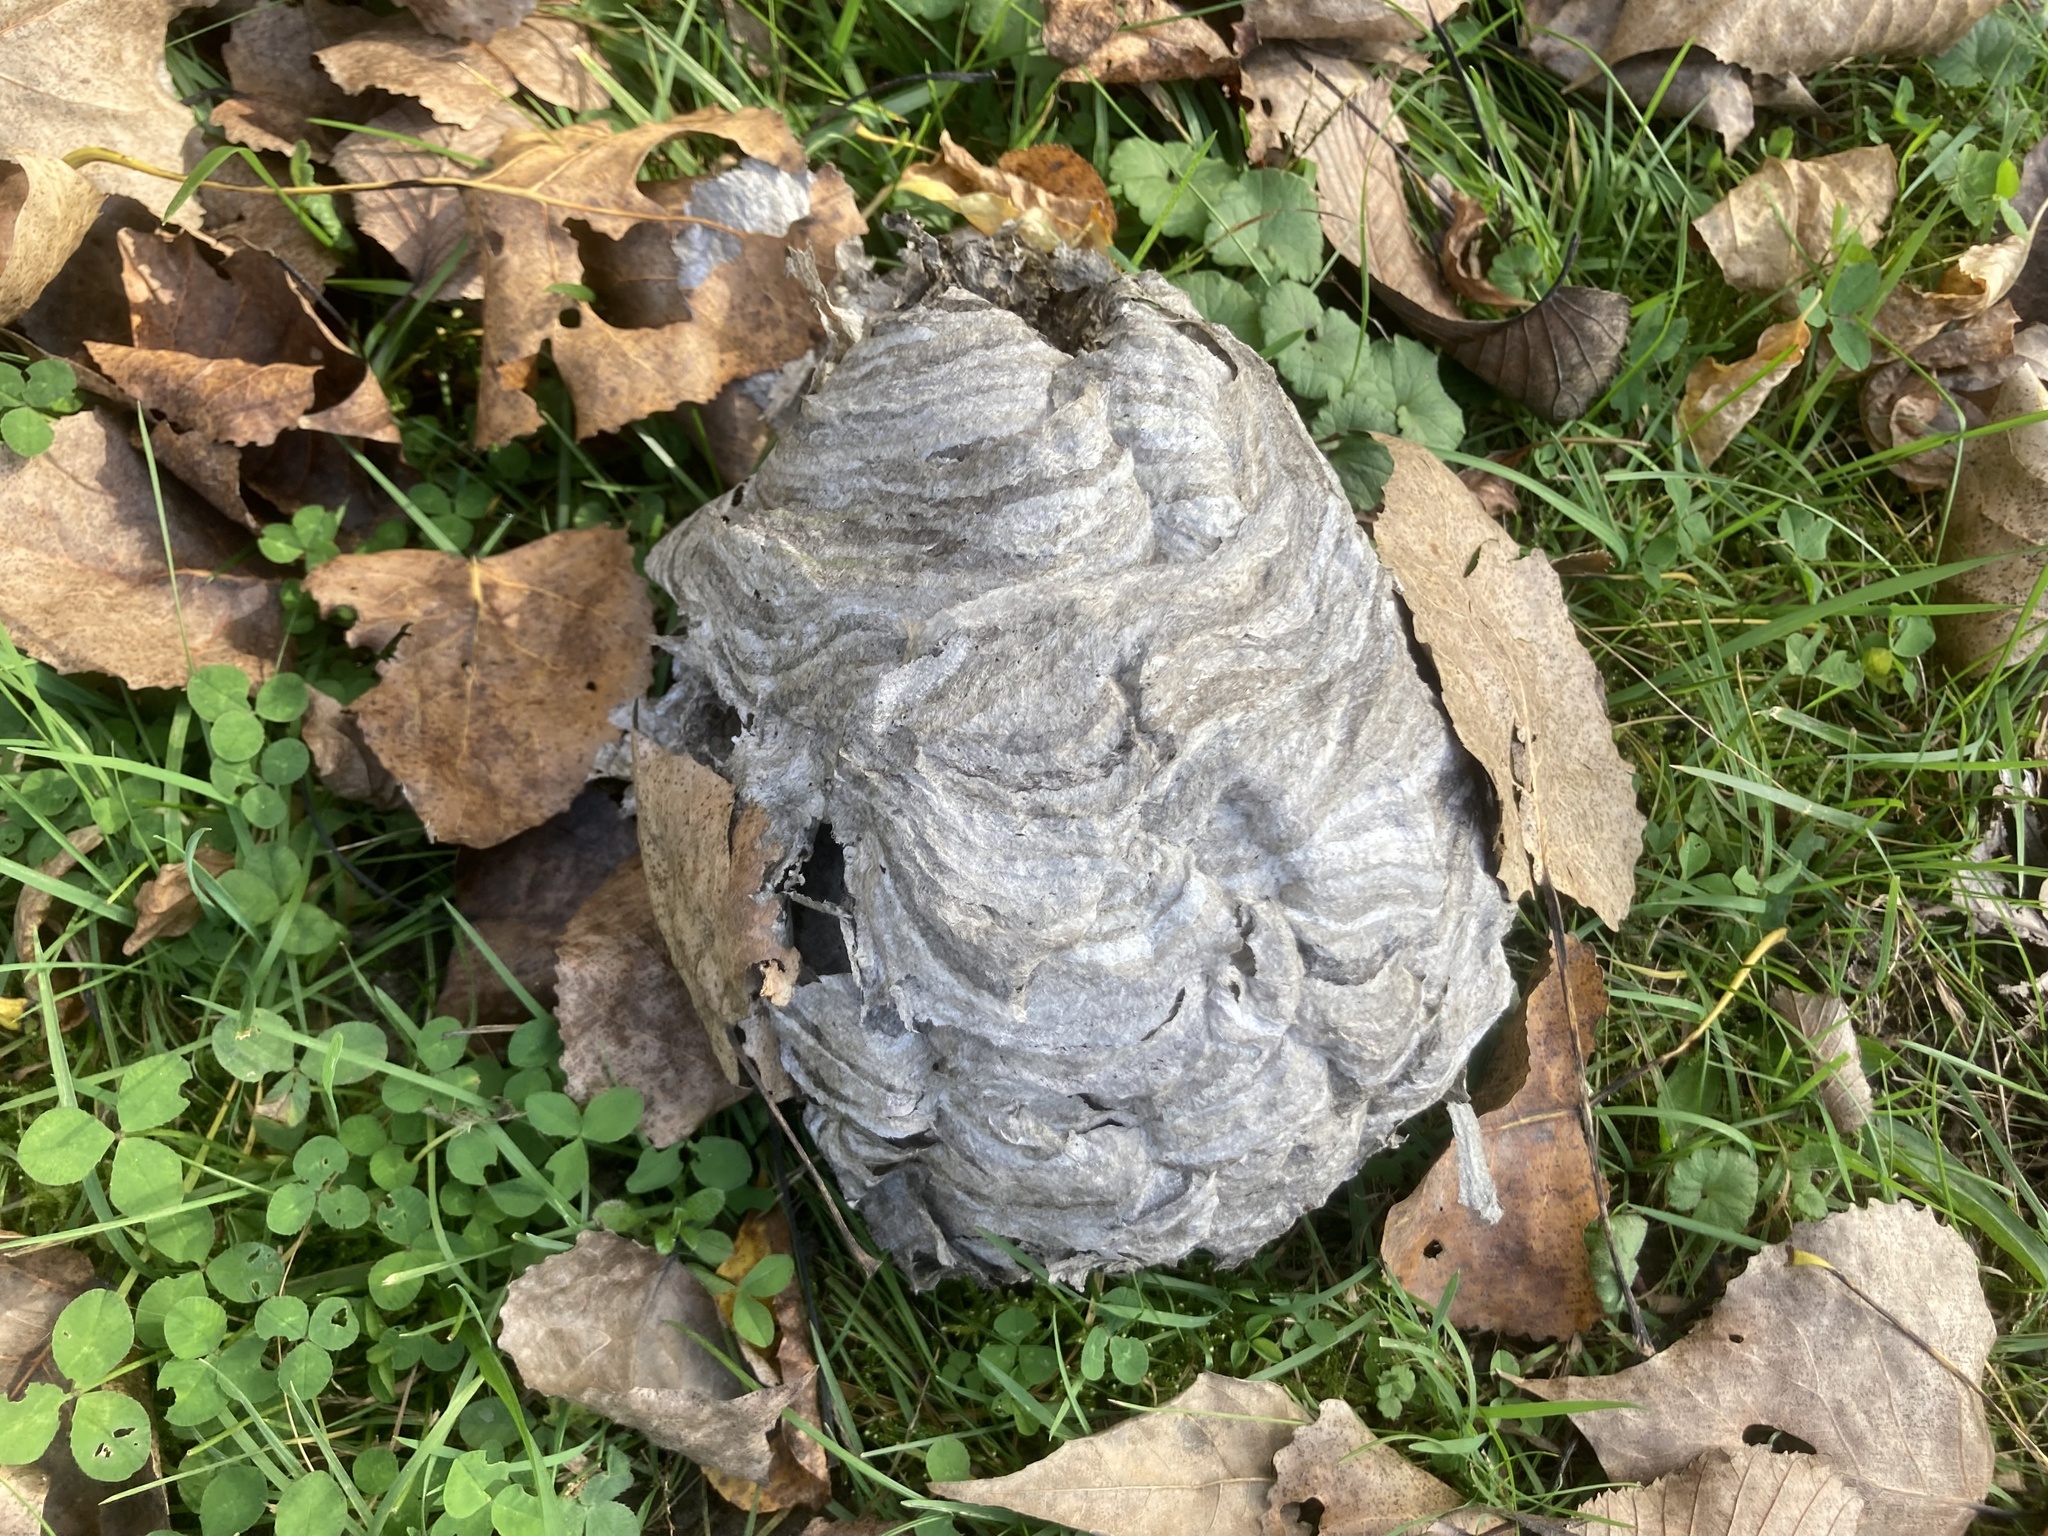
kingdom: Animalia
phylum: Arthropoda
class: Insecta
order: Hymenoptera
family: Vespidae
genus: Dolichovespula
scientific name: Dolichovespula maculata
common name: Bald-faced hornet
